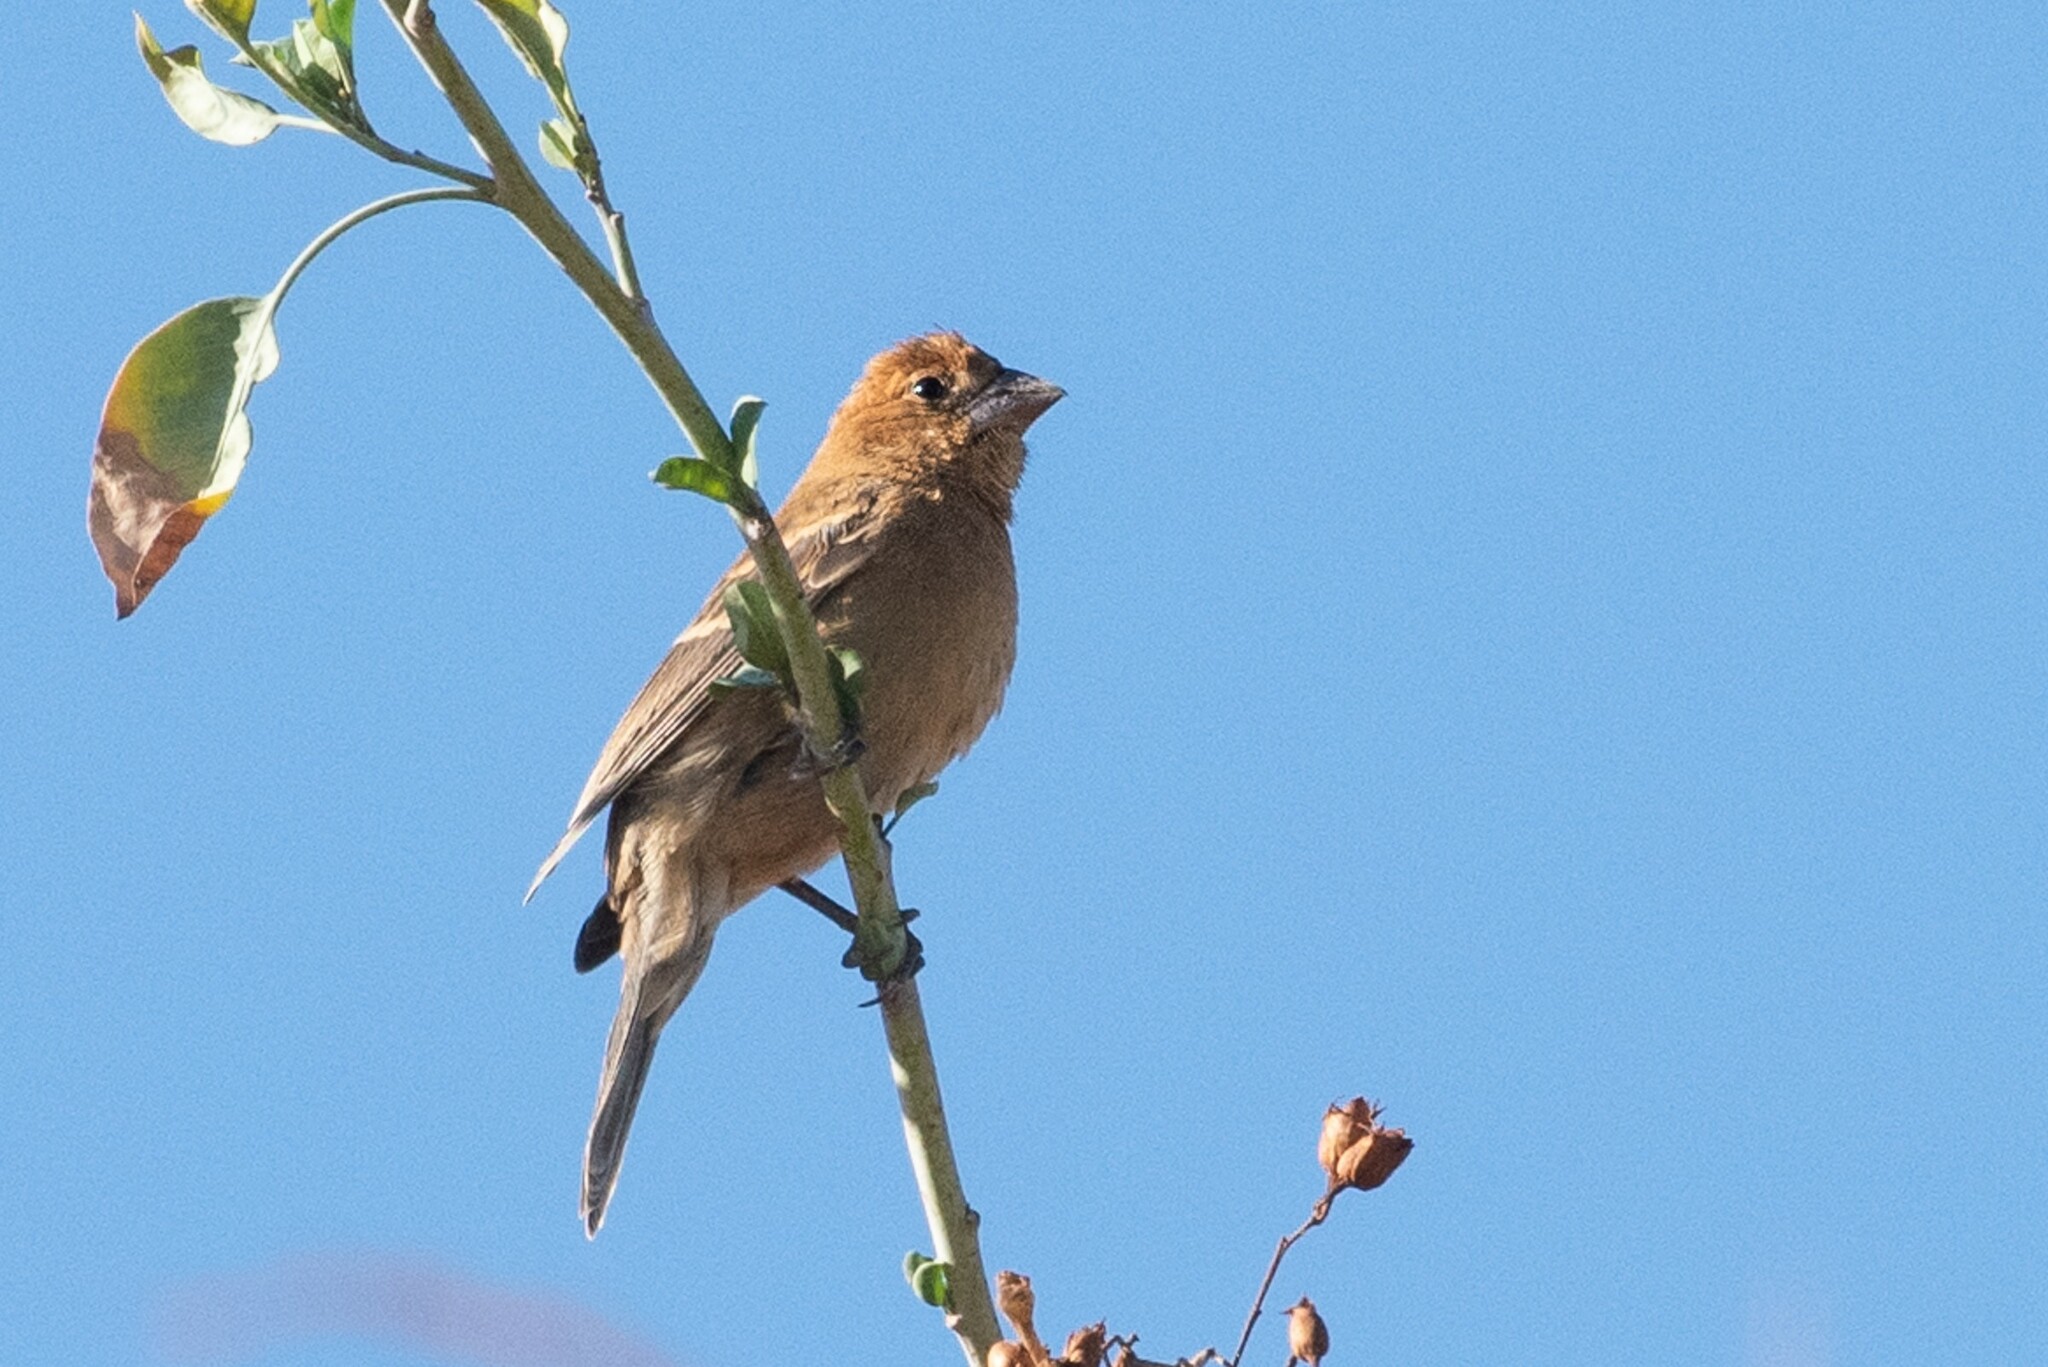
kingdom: Animalia
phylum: Chordata
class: Aves
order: Passeriformes
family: Cardinalidae
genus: Passerina
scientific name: Passerina caerulea
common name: Blue grosbeak
